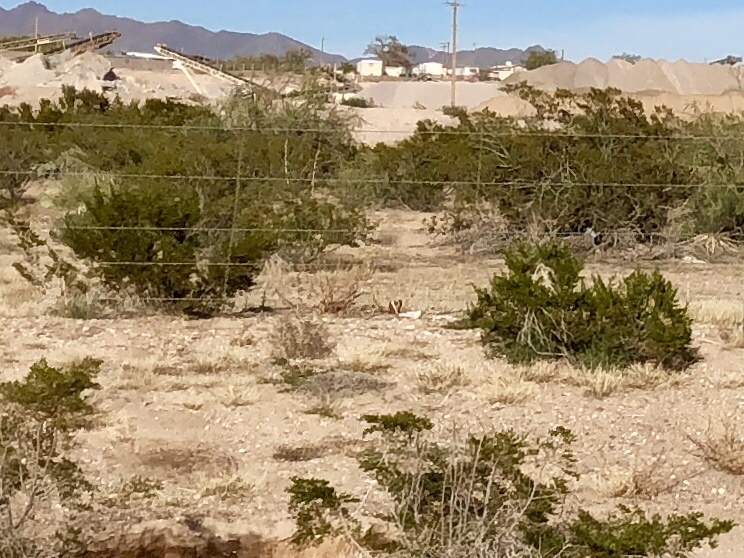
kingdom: Plantae
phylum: Tracheophyta
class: Magnoliopsida
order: Zygophyllales
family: Zygophyllaceae
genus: Larrea
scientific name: Larrea tridentata
